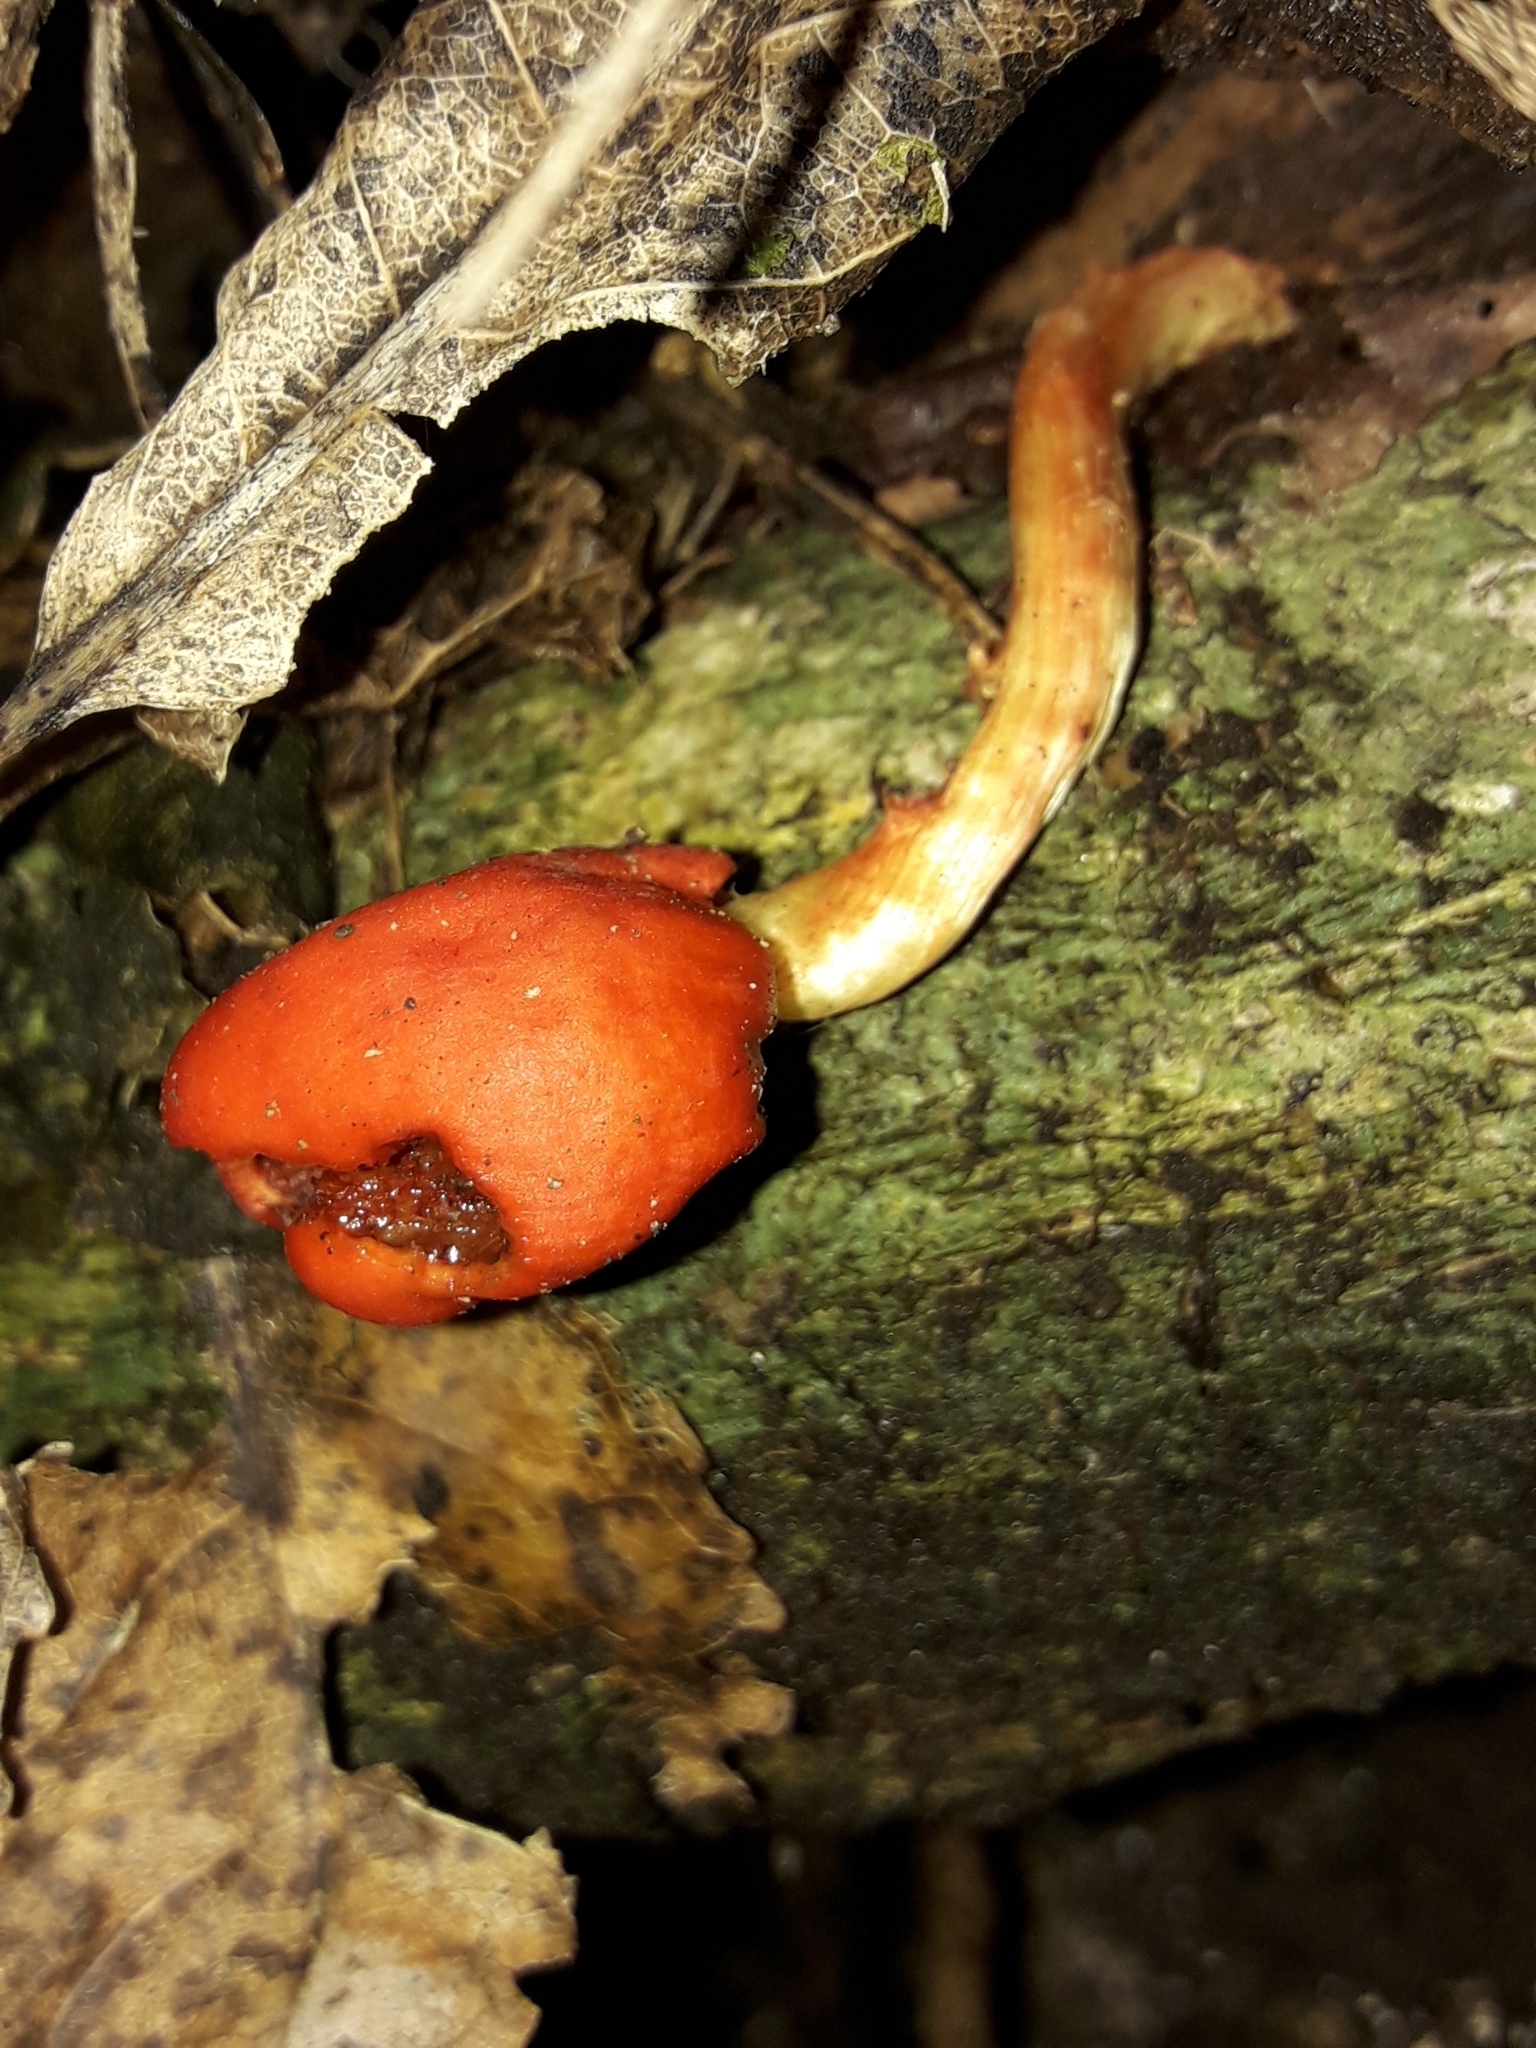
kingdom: Fungi
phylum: Basidiomycota
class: Agaricomycetes
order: Agaricales
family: Strophariaceae
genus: Leratiomyces
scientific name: Leratiomyces erythrocephalus
